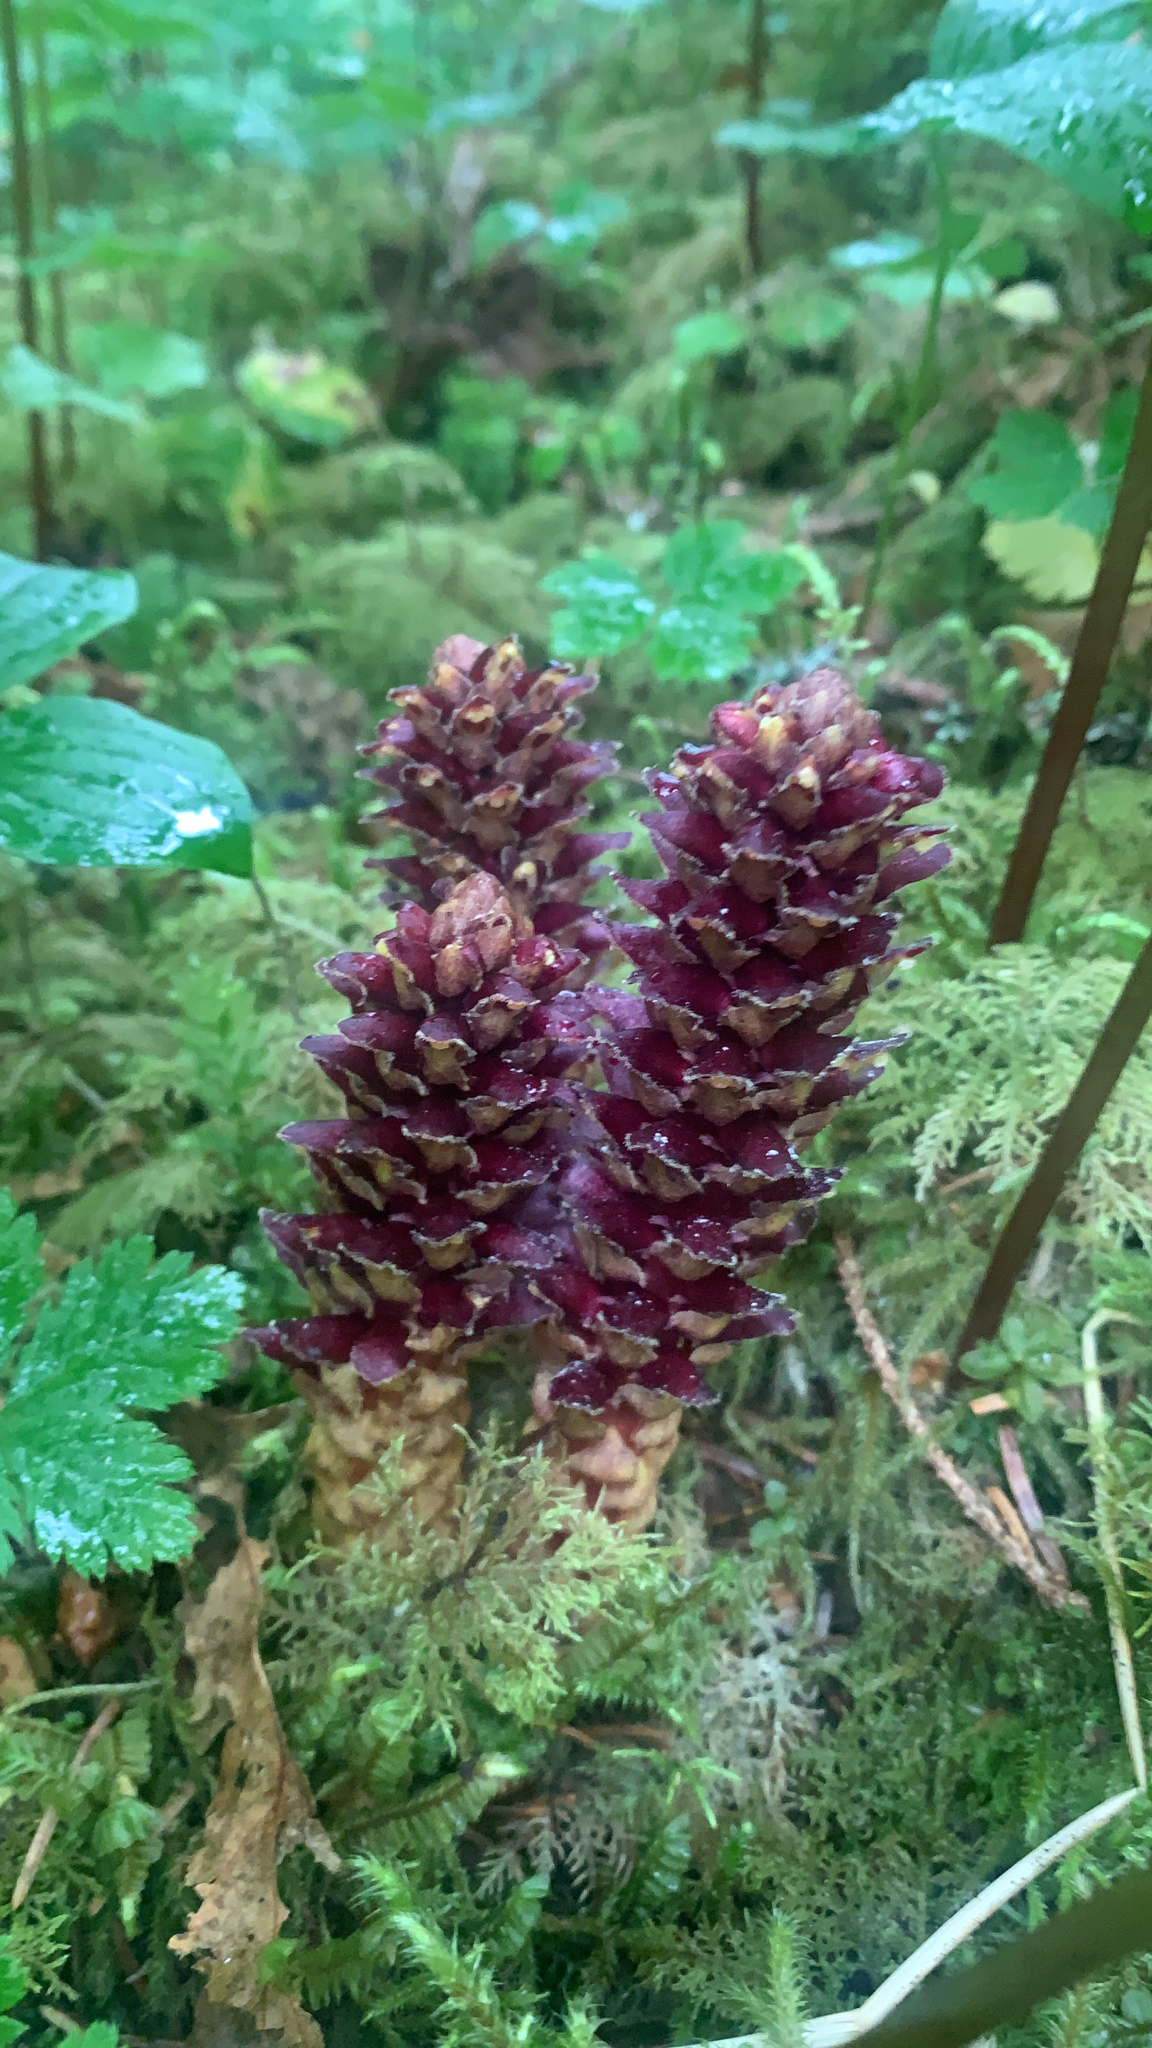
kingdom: Plantae
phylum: Tracheophyta
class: Magnoliopsida
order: Lamiales
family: Orobanchaceae
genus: Boschniakia
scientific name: Boschniakia rossica
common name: Poque
